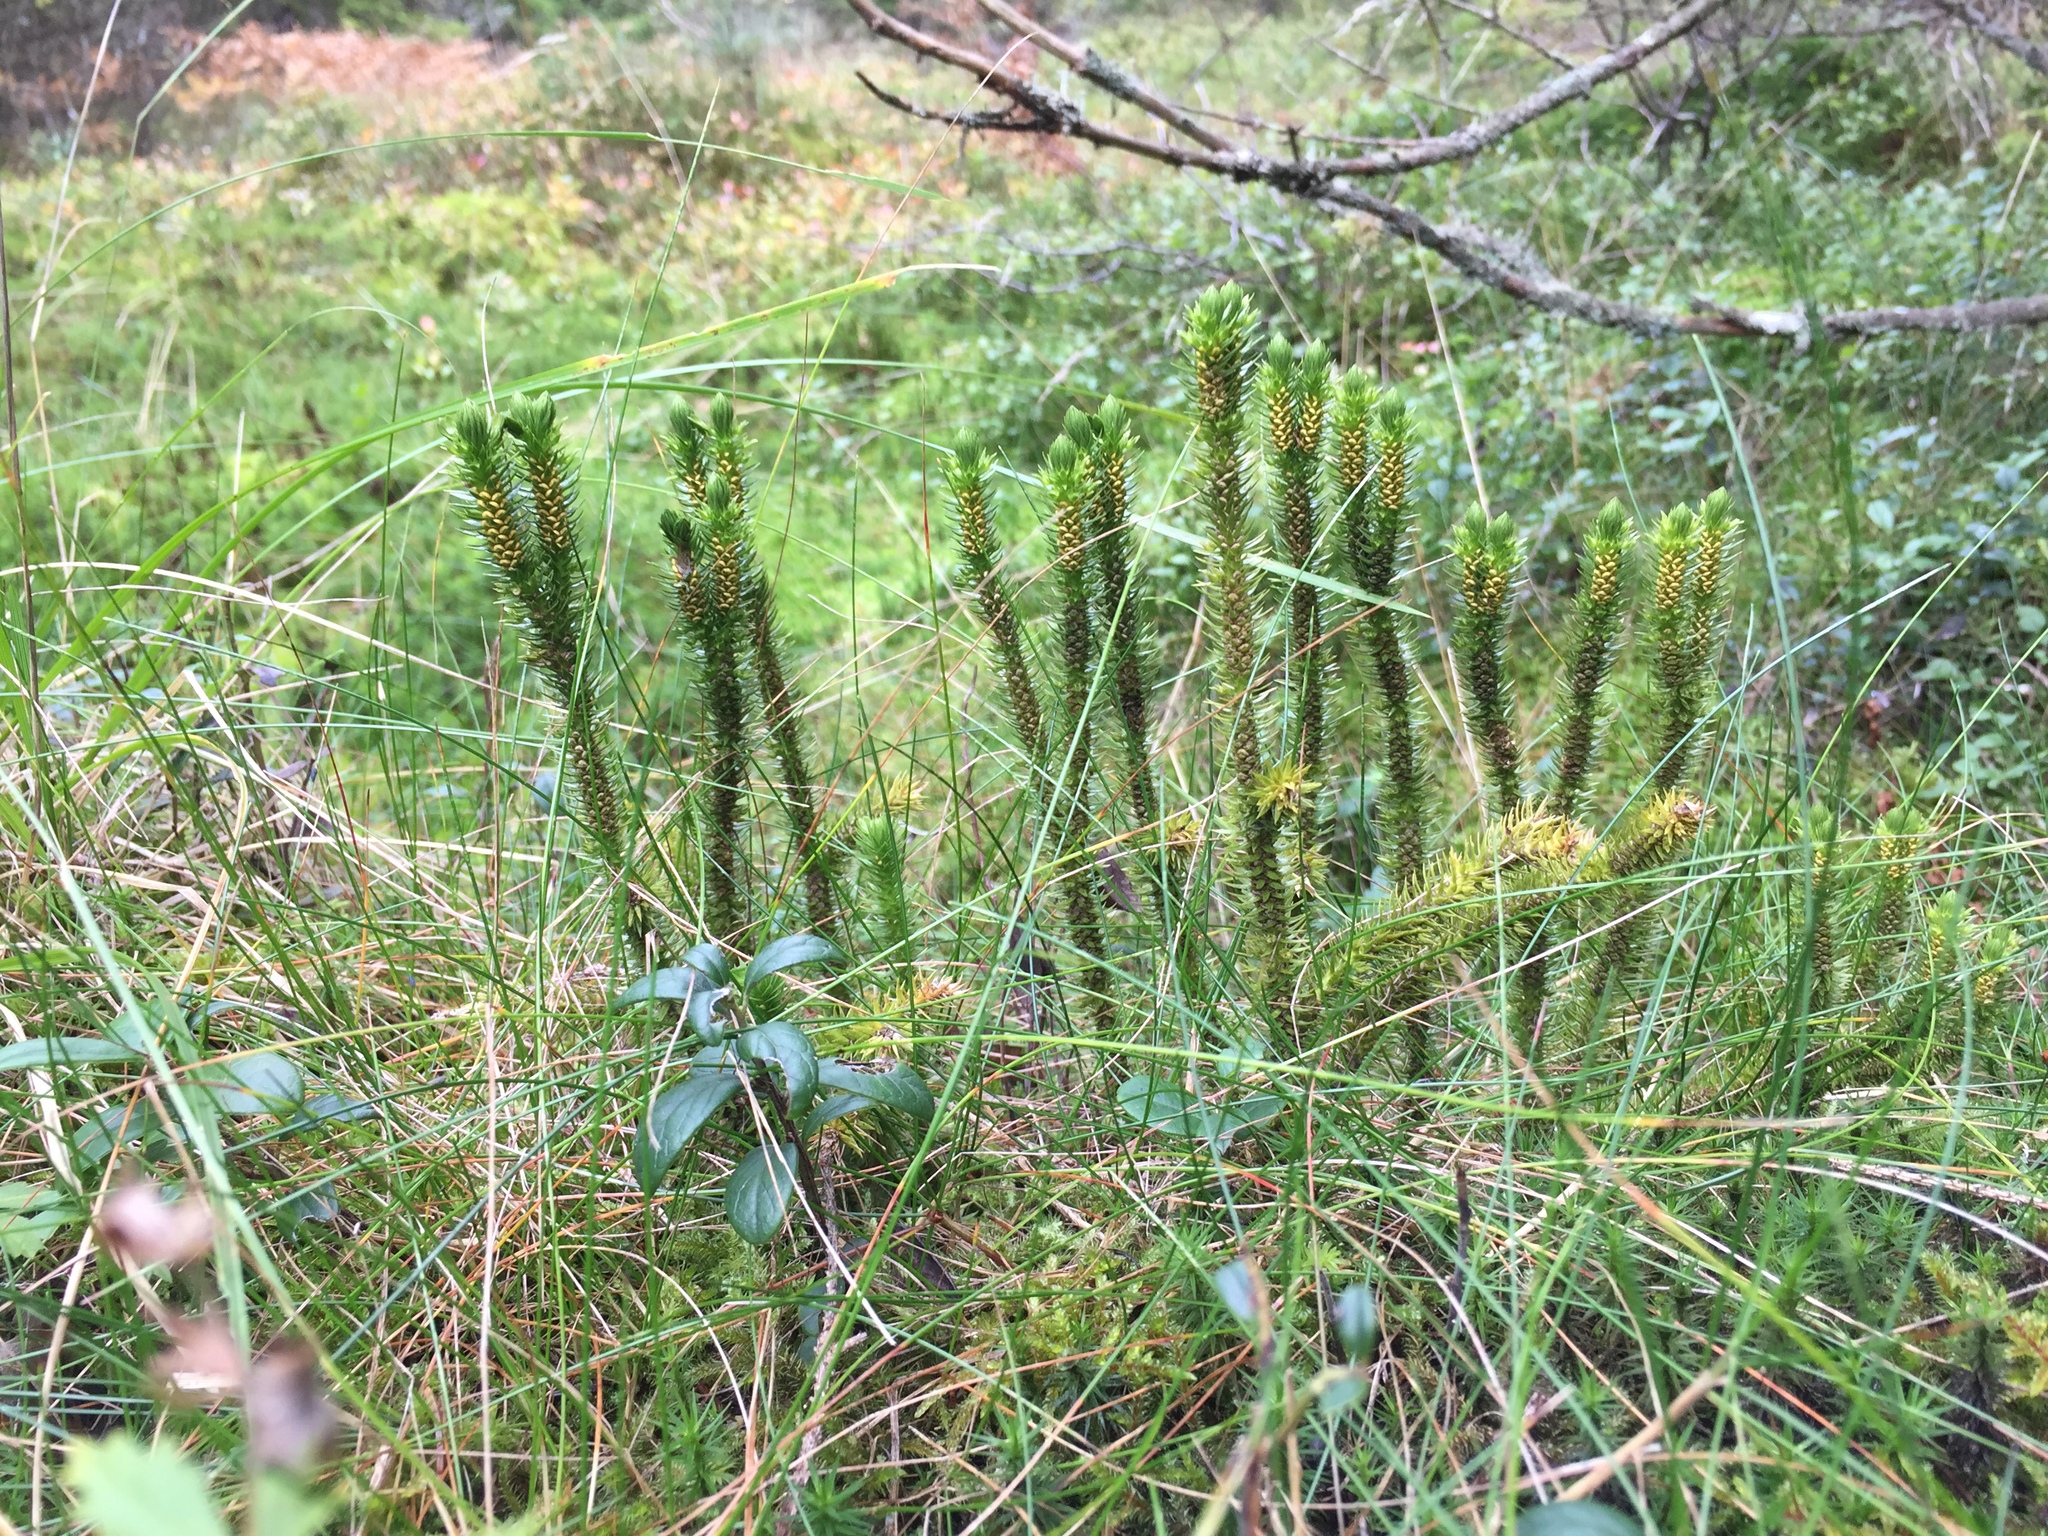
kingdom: Plantae
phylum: Tracheophyta
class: Lycopodiopsida
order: Lycopodiales
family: Lycopodiaceae
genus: Huperzia
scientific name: Huperzia selago
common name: Northern firmoss
